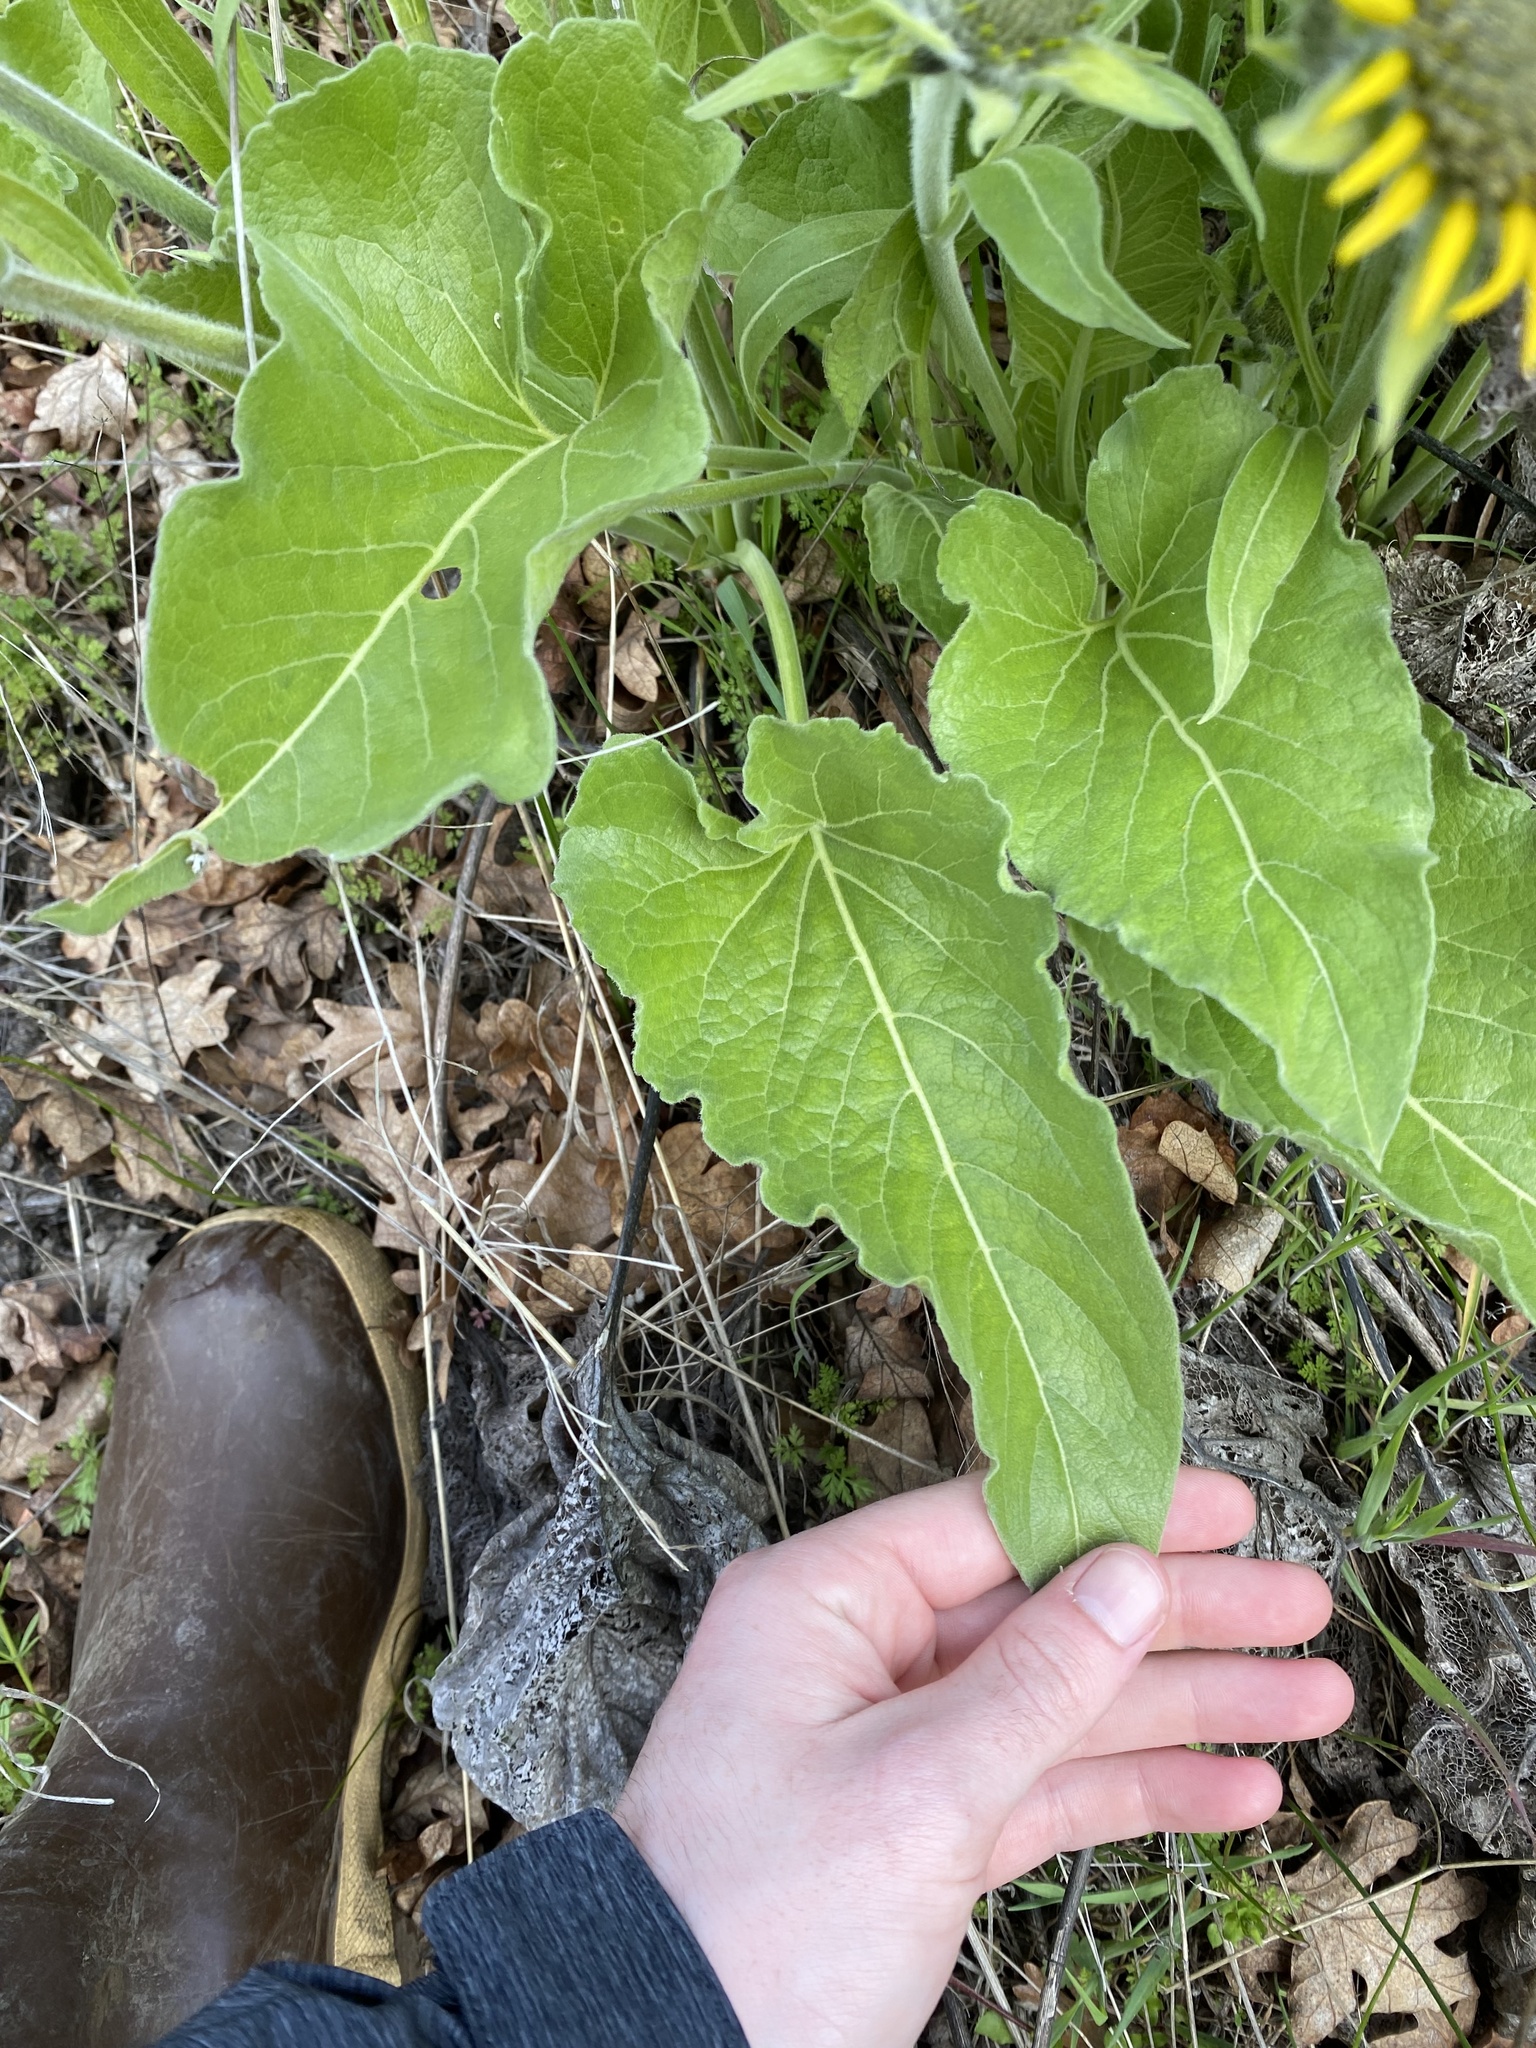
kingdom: Plantae
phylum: Tracheophyta
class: Magnoliopsida
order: Asterales
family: Asteraceae
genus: Wyethia
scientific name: Wyethia sagittata
